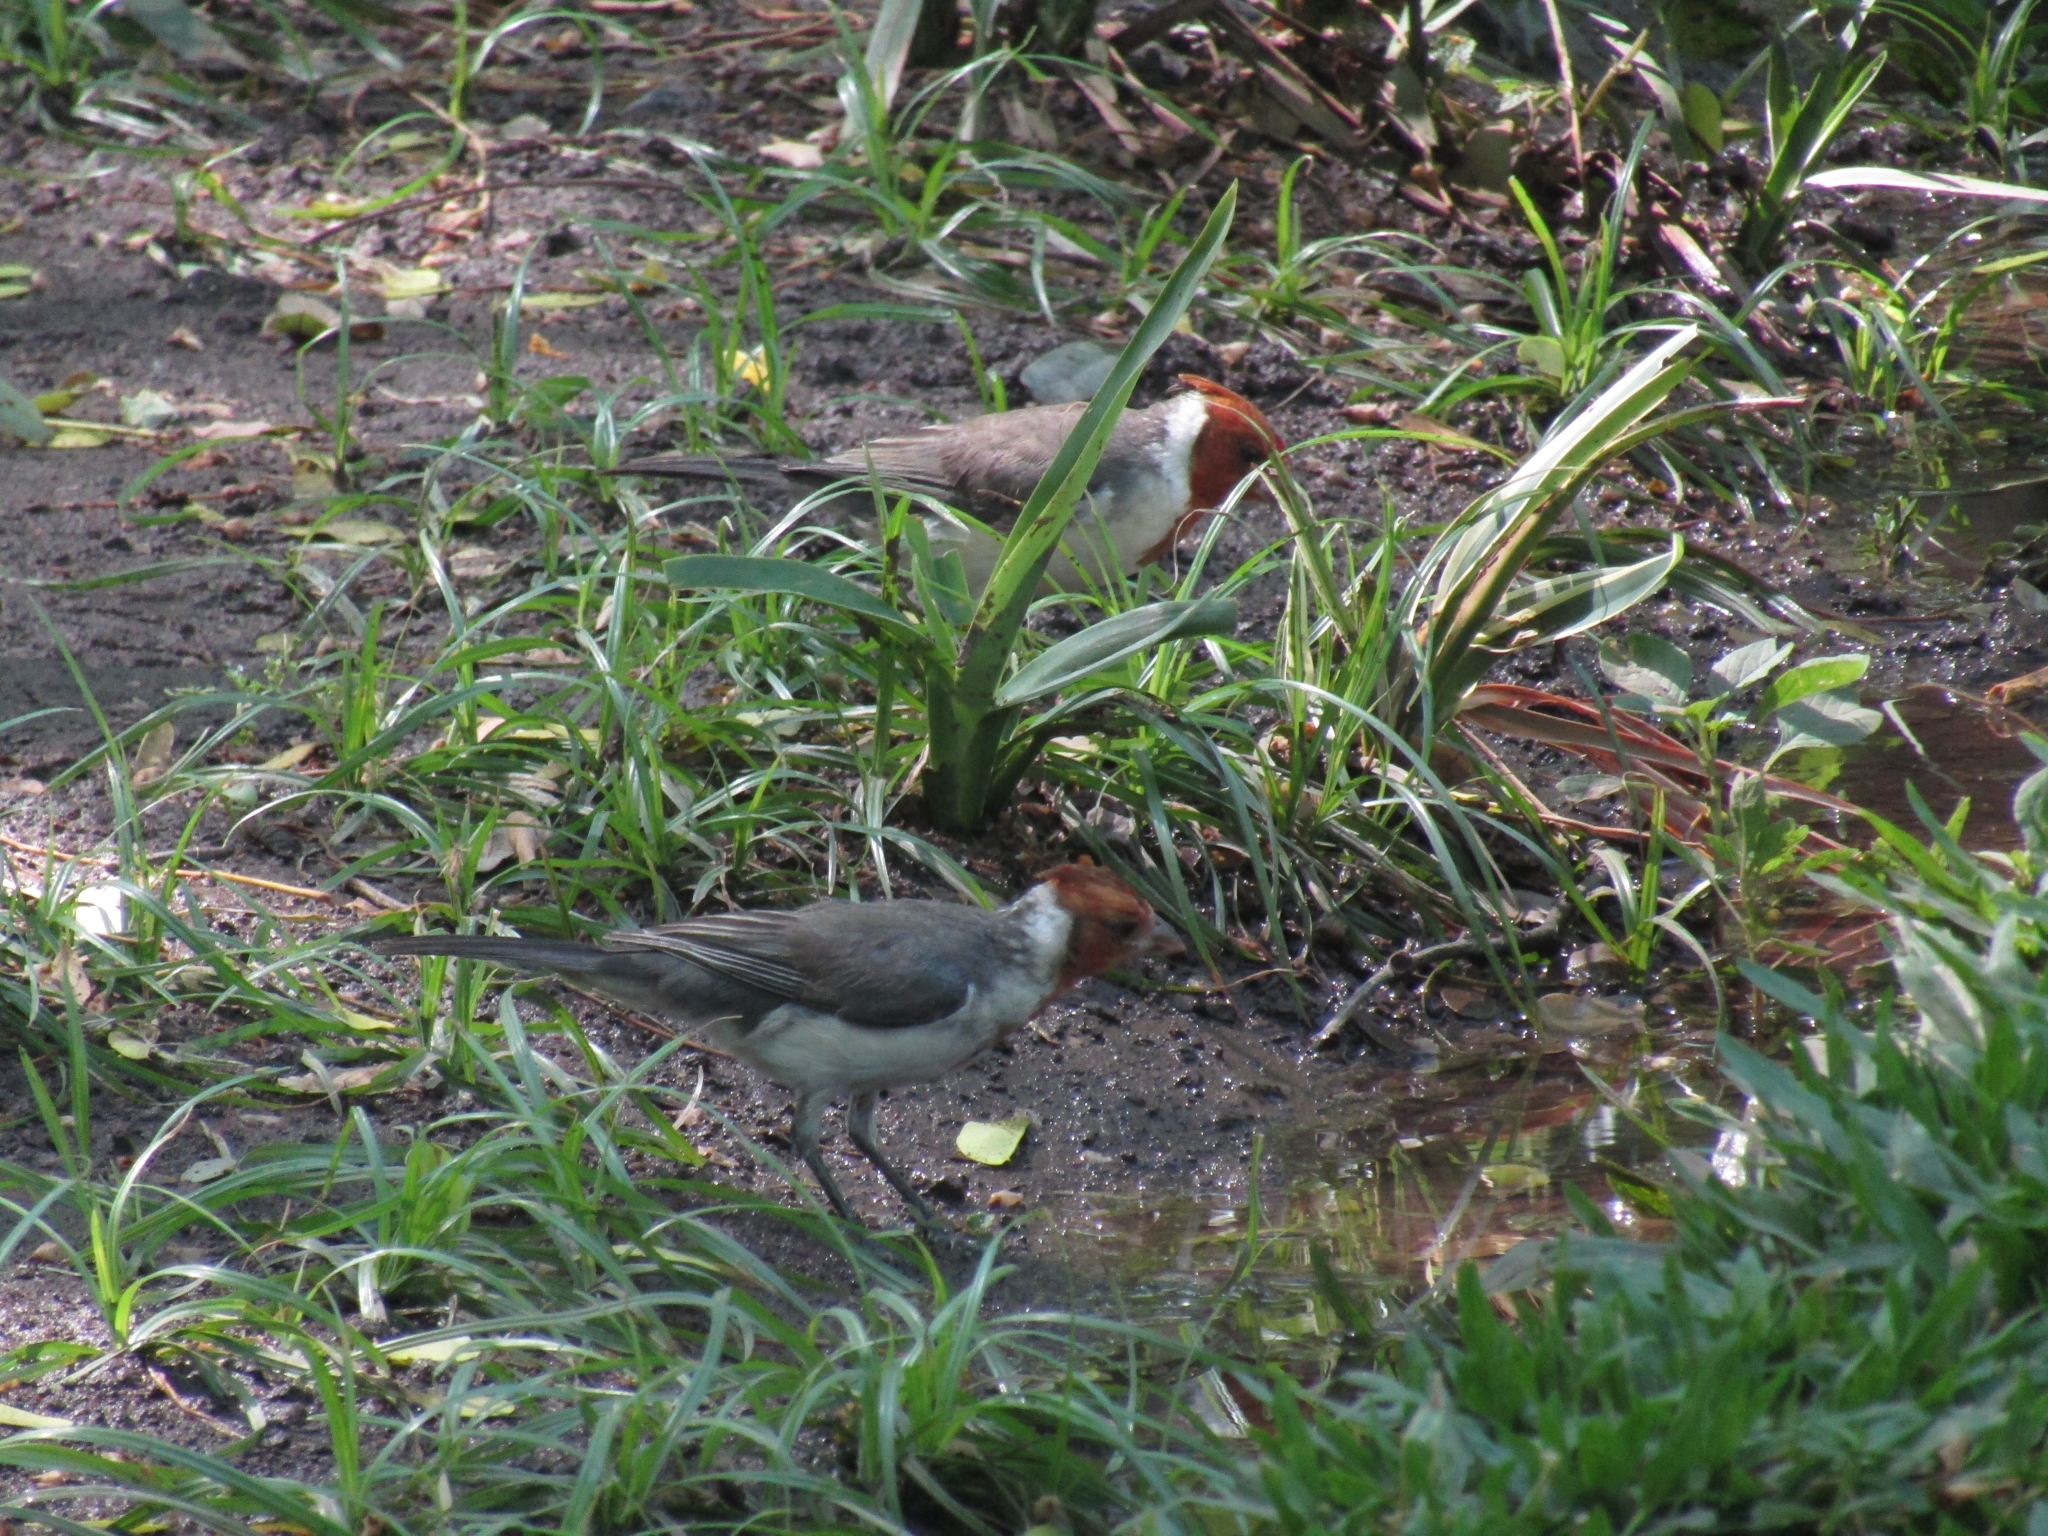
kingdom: Animalia
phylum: Chordata
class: Aves
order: Passeriformes
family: Thraupidae
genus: Paroaria
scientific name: Paroaria coronata
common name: Red-crested cardinal
